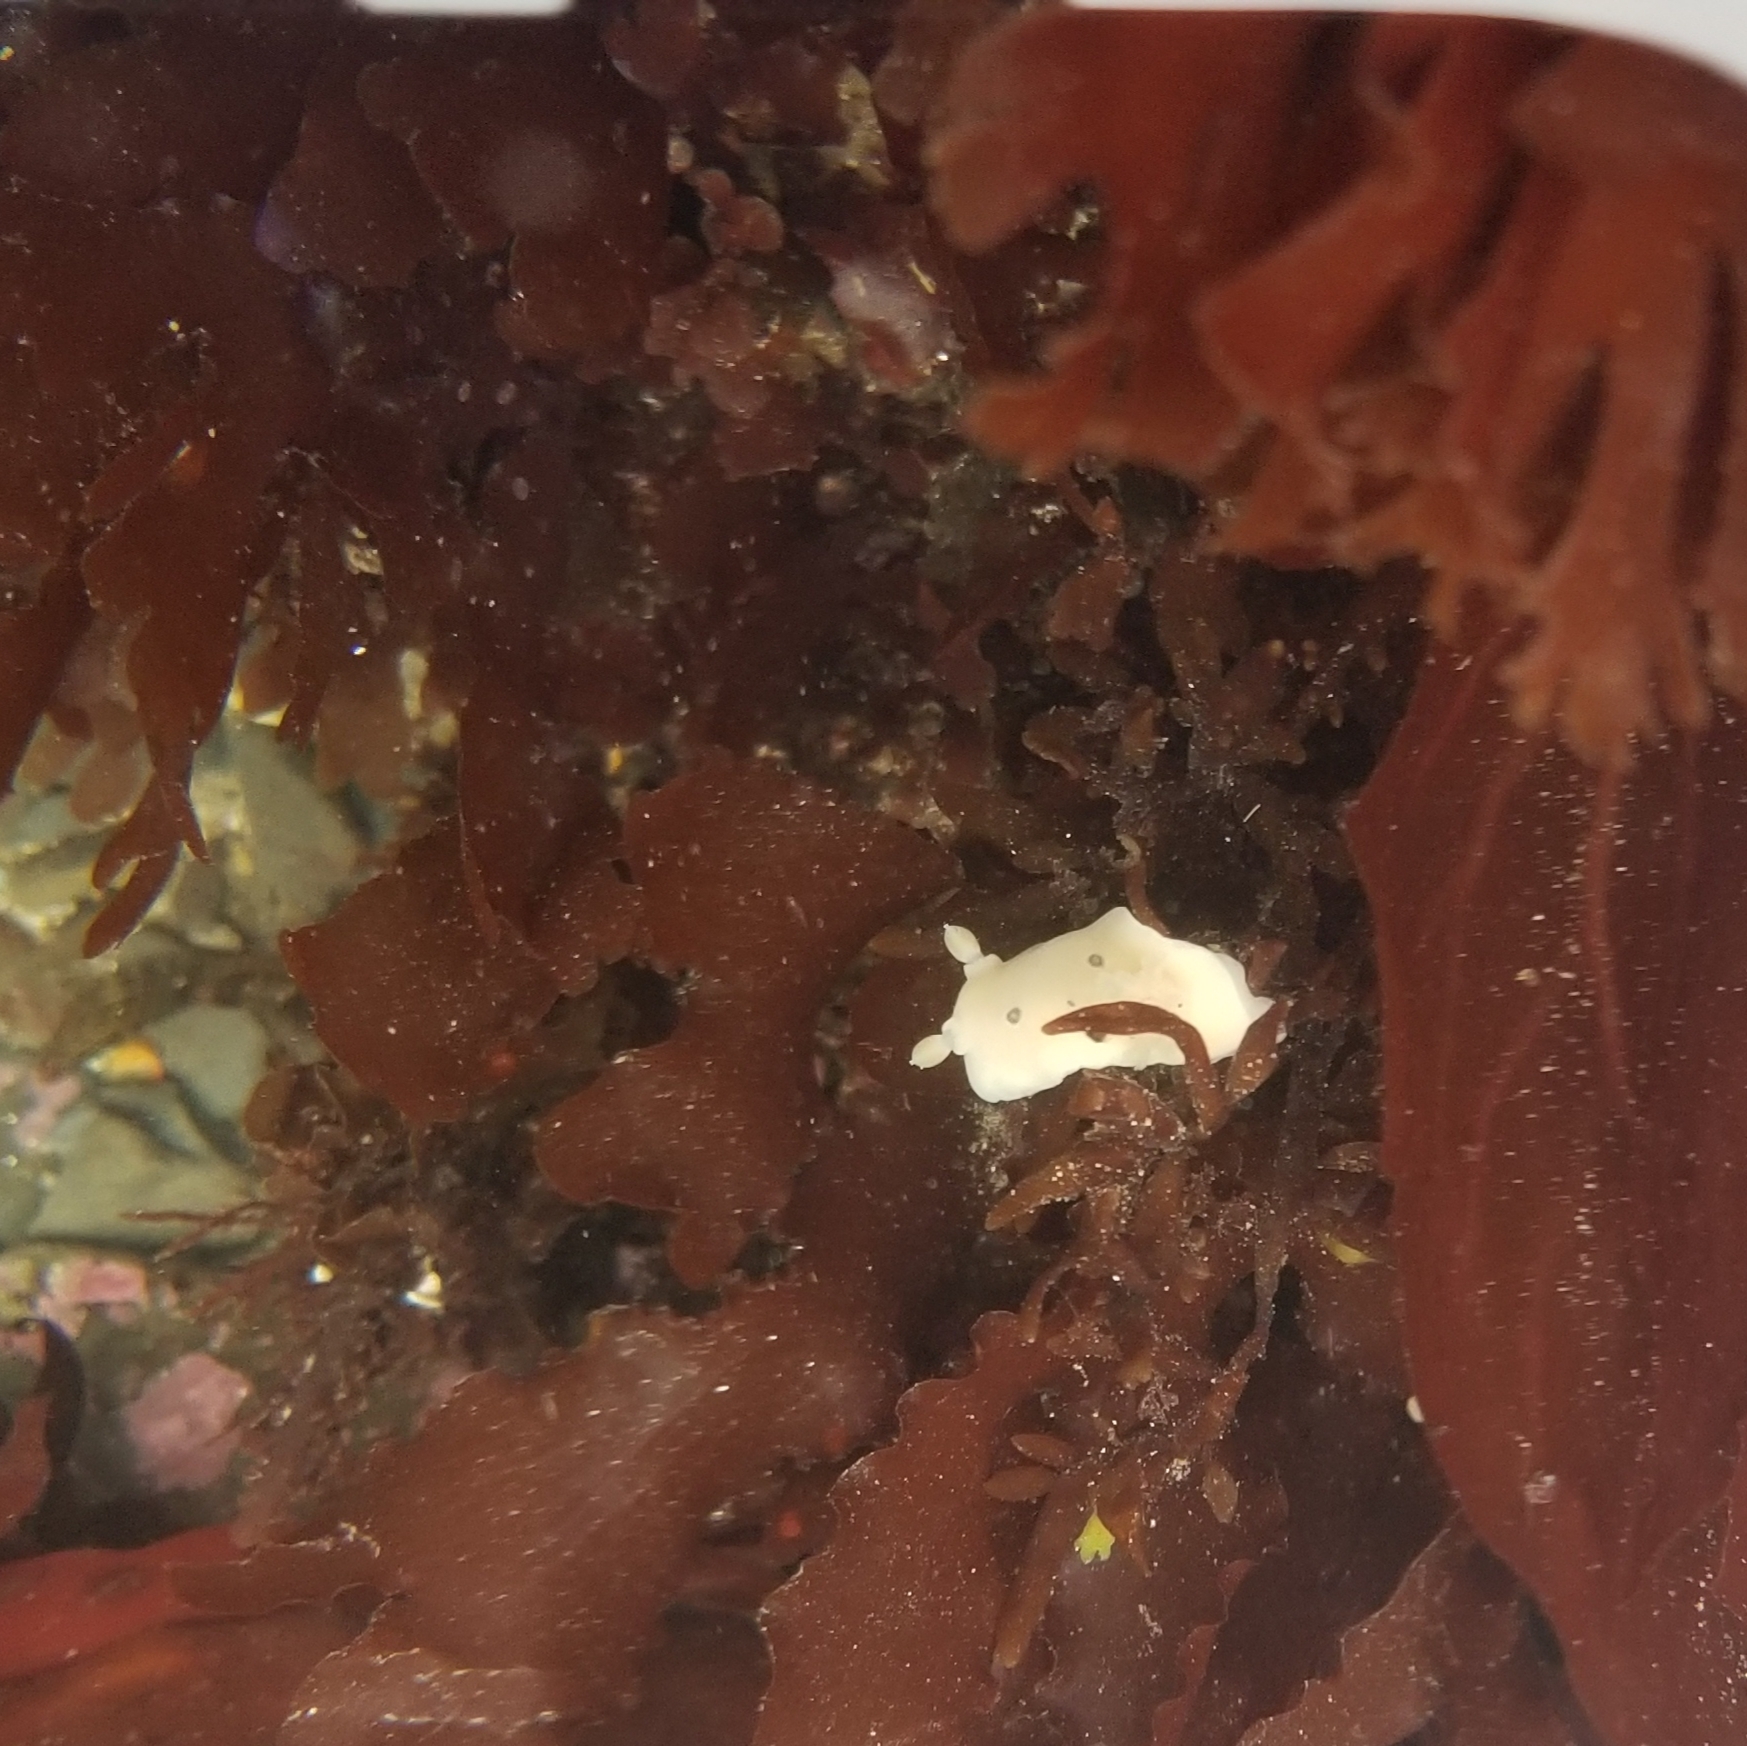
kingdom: Animalia
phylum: Mollusca
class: Gastropoda
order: Nudibranchia
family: Discodorididae
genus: Diaulula
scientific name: Diaulula sandiegensis
